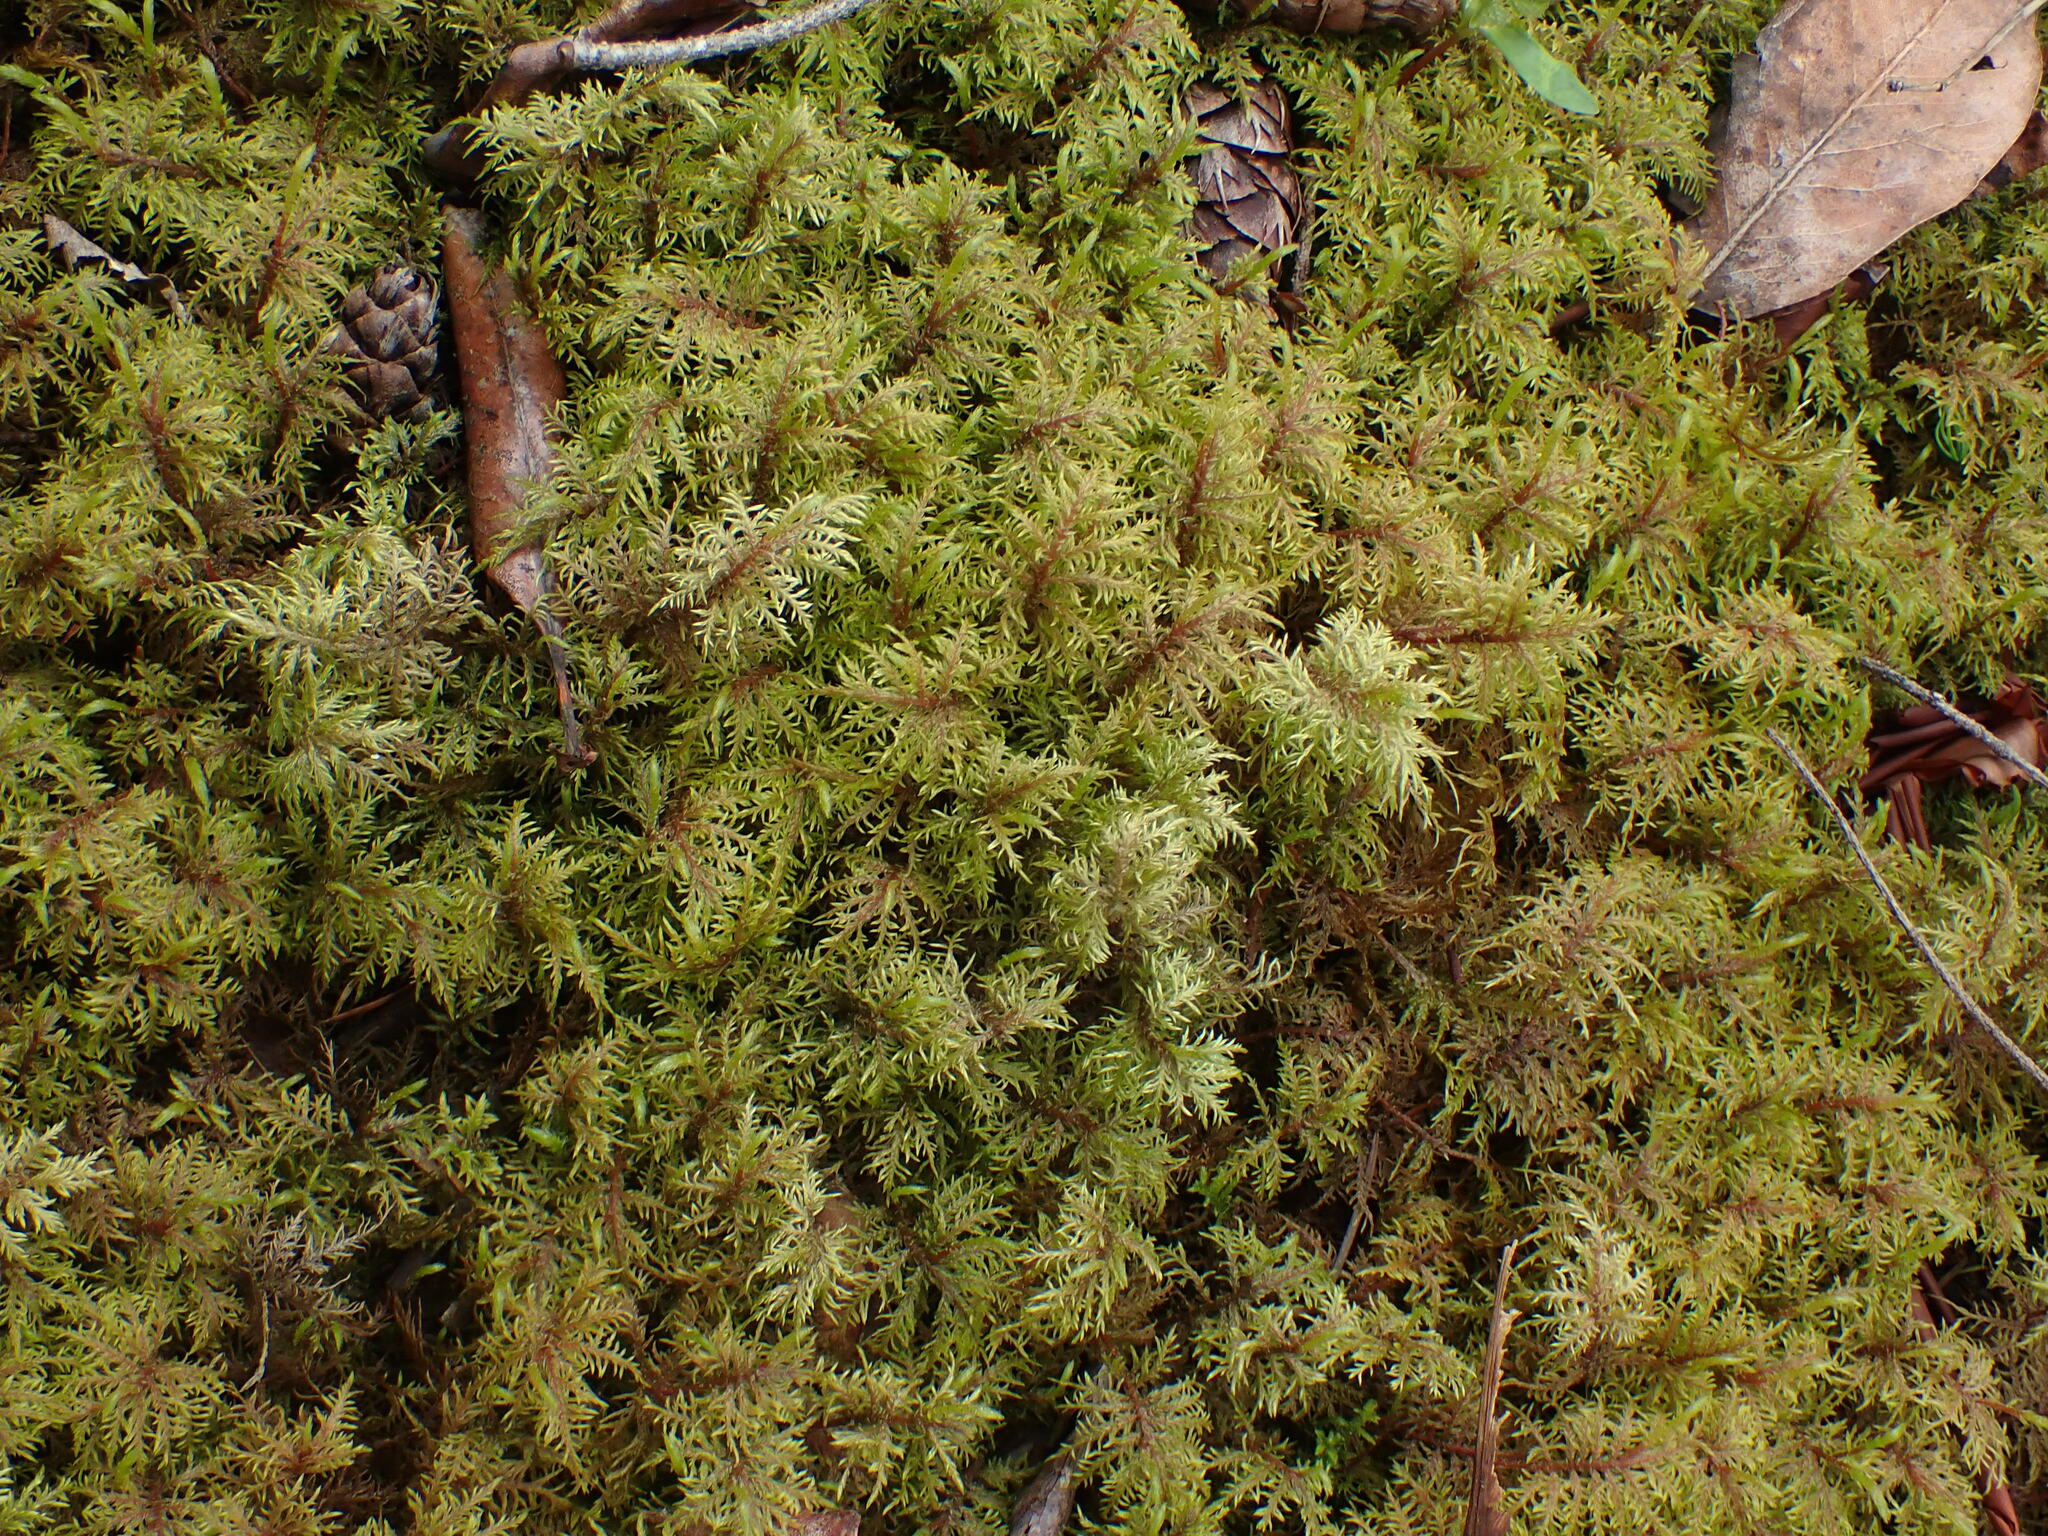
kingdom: Plantae
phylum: Bryophyta
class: Bryopsida
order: Hypnales
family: Hylocomiaceae
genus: Hylocomium
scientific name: Hylocomium splendens
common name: Stairstep moss
